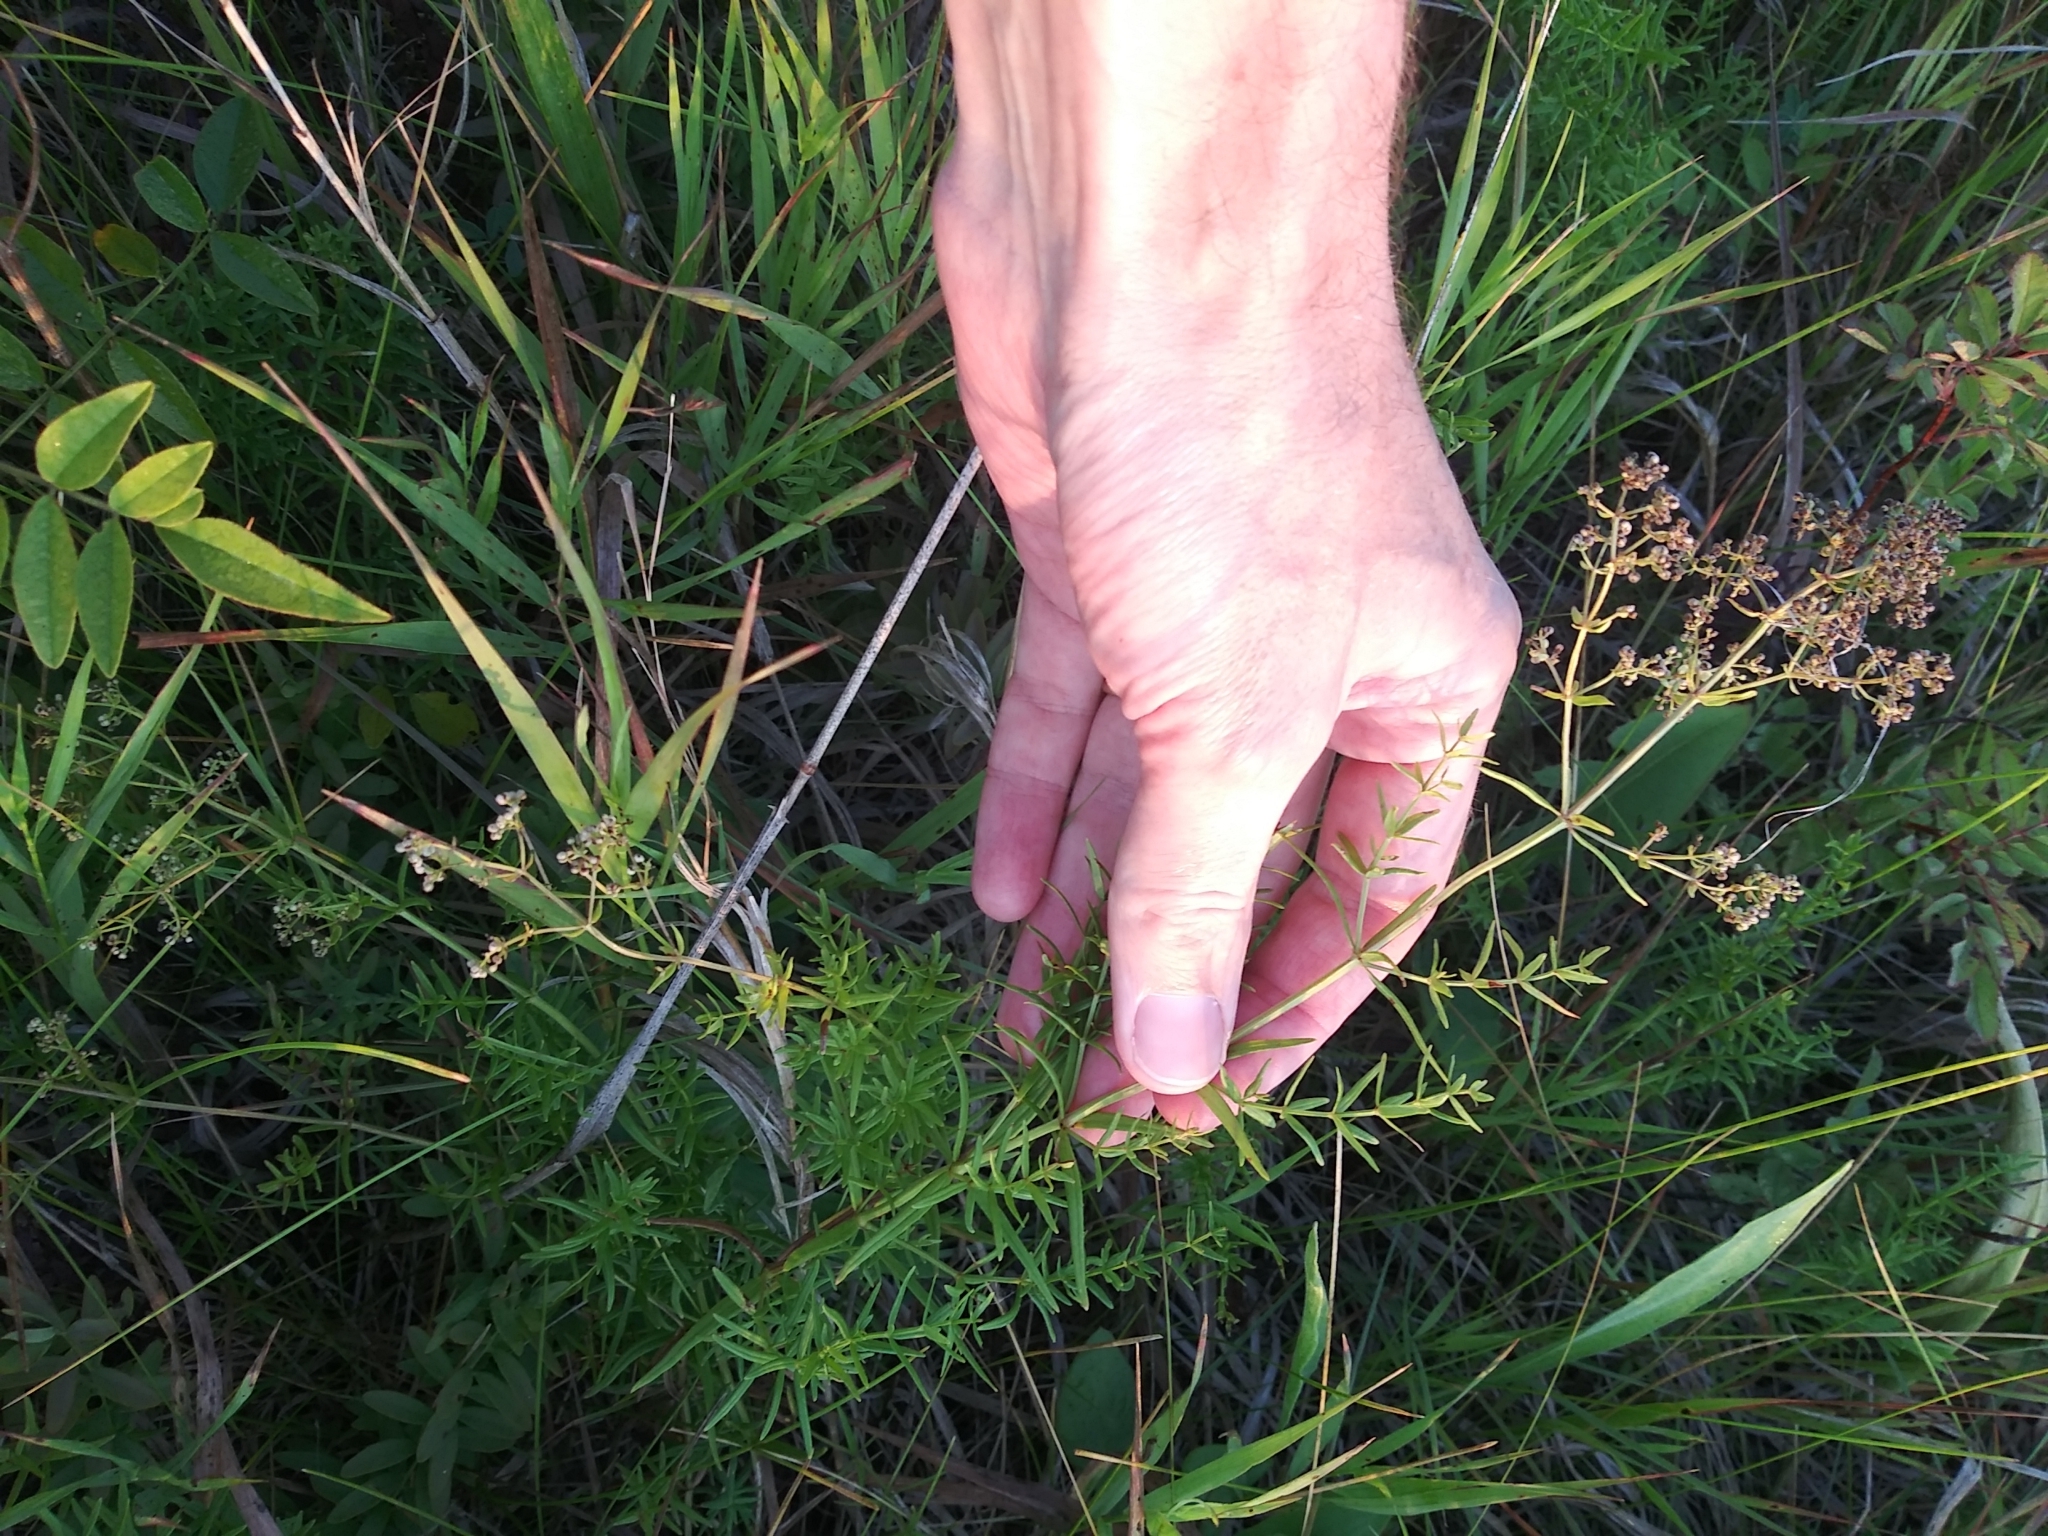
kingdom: Plantae
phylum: Tracheophyta
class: Magnoliopsida
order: Gentianales
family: Rubiaceae
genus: Galium
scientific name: Galium boreale
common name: Northern bedstraw
